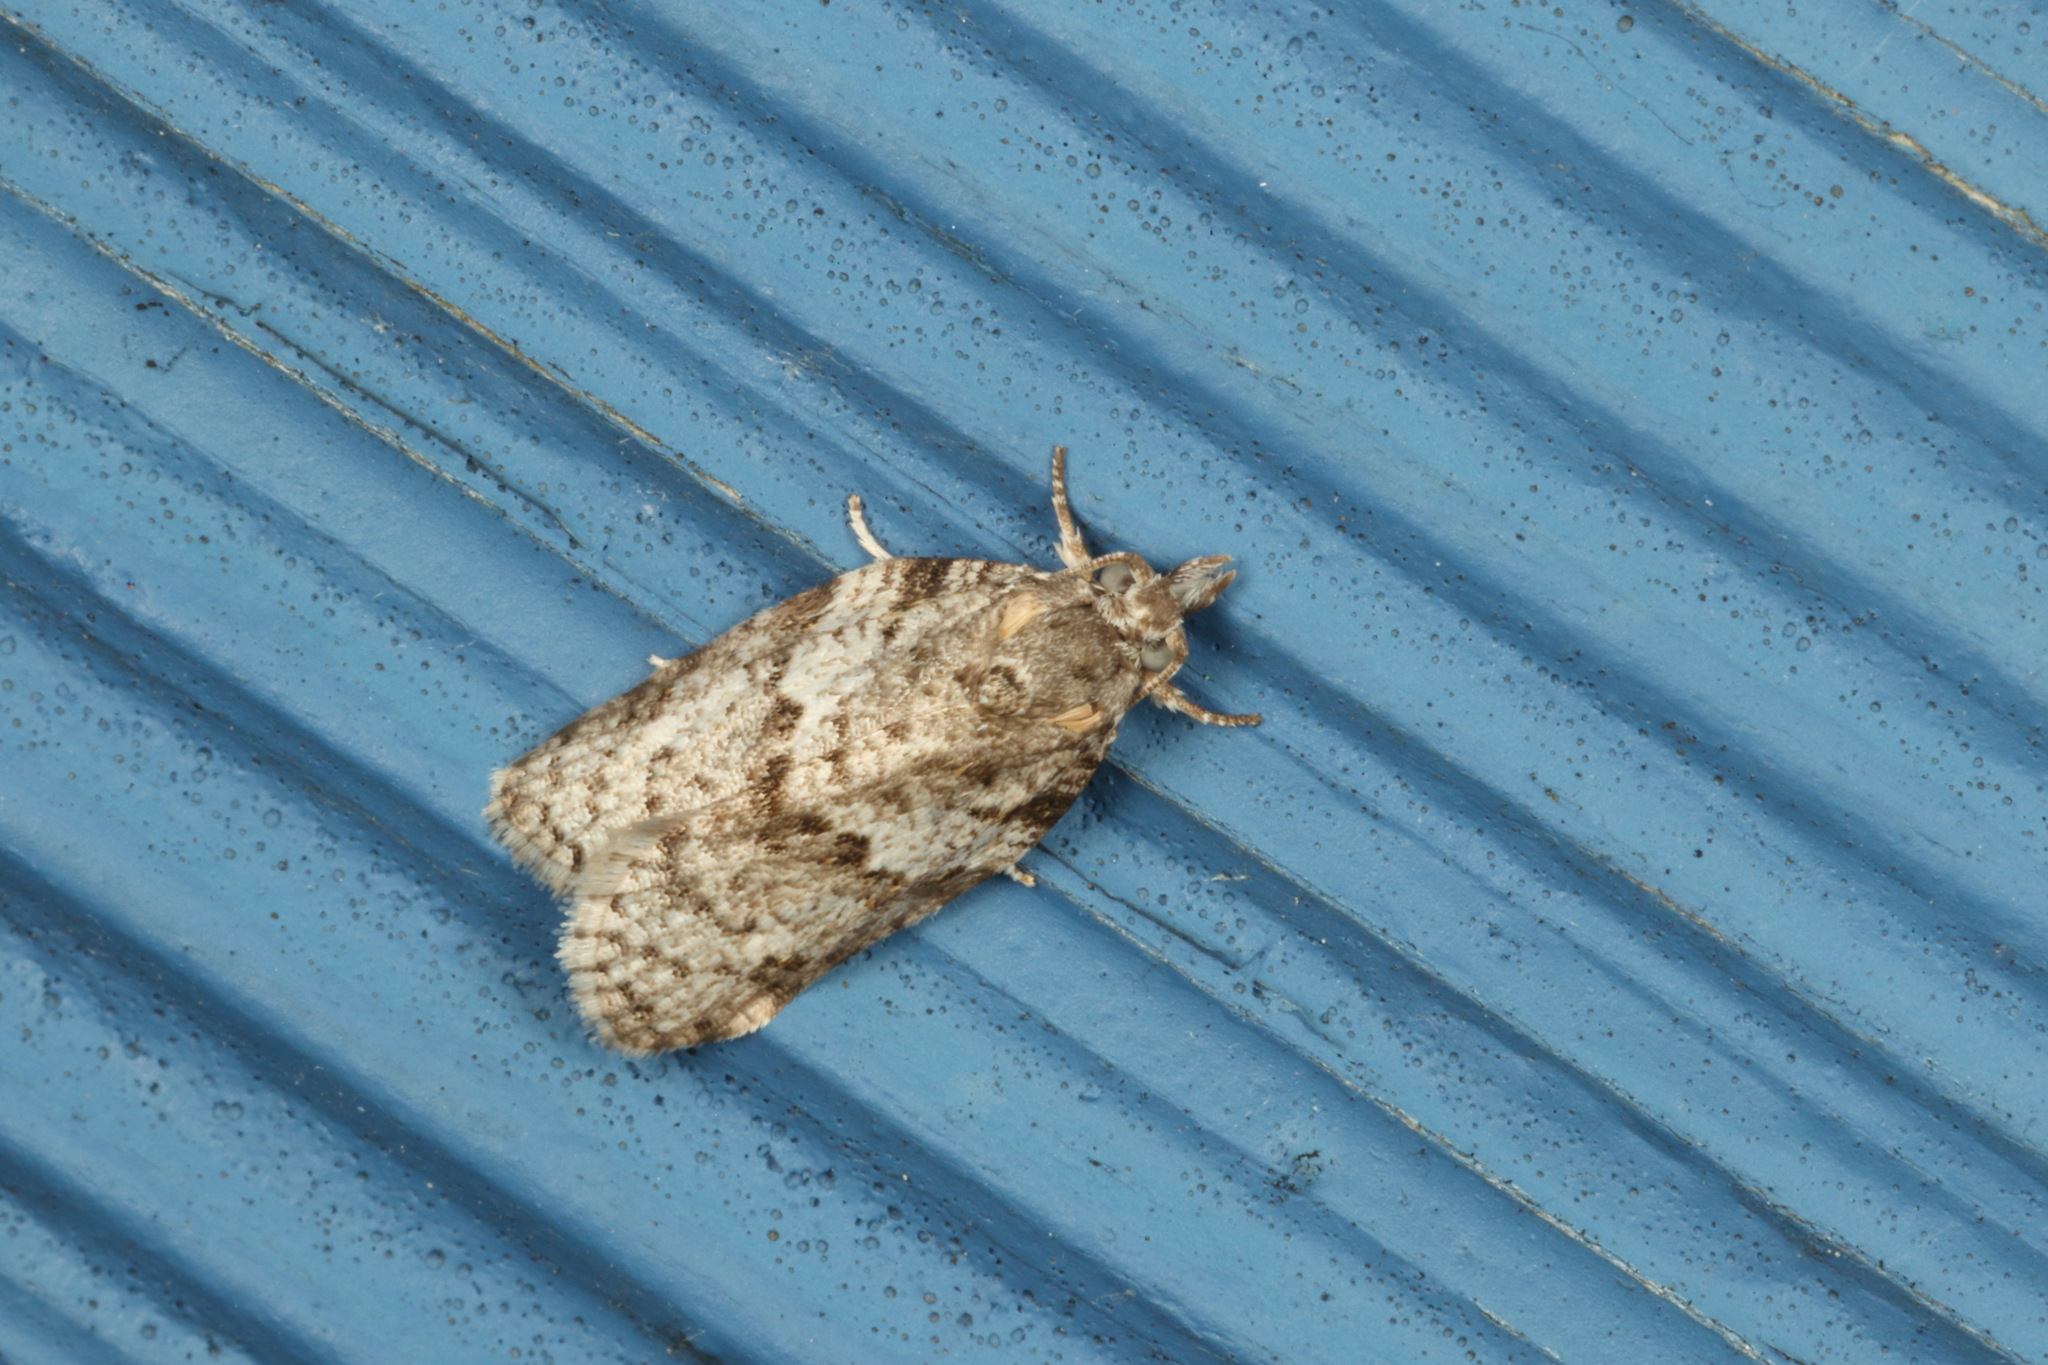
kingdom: Animalia
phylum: Arthropoda
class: Insecta
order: Lepidoptera
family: Tortricidae
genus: Isotenes
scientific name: Isotenes miserana
